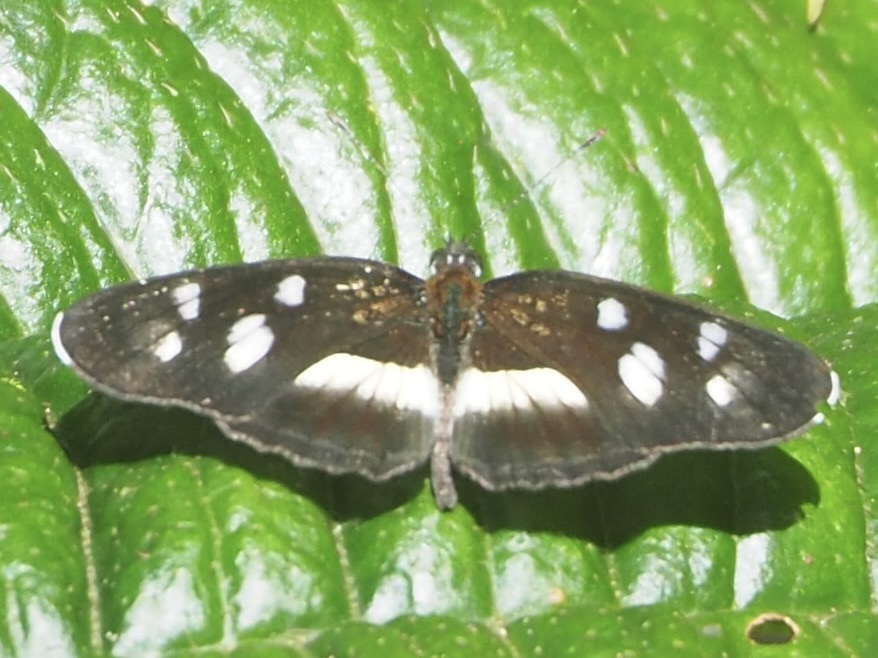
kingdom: Animalia
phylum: Arthropoda
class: Insecta
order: Lepidoptera
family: Nymphalidae
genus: Eresia
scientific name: Eresia clio
